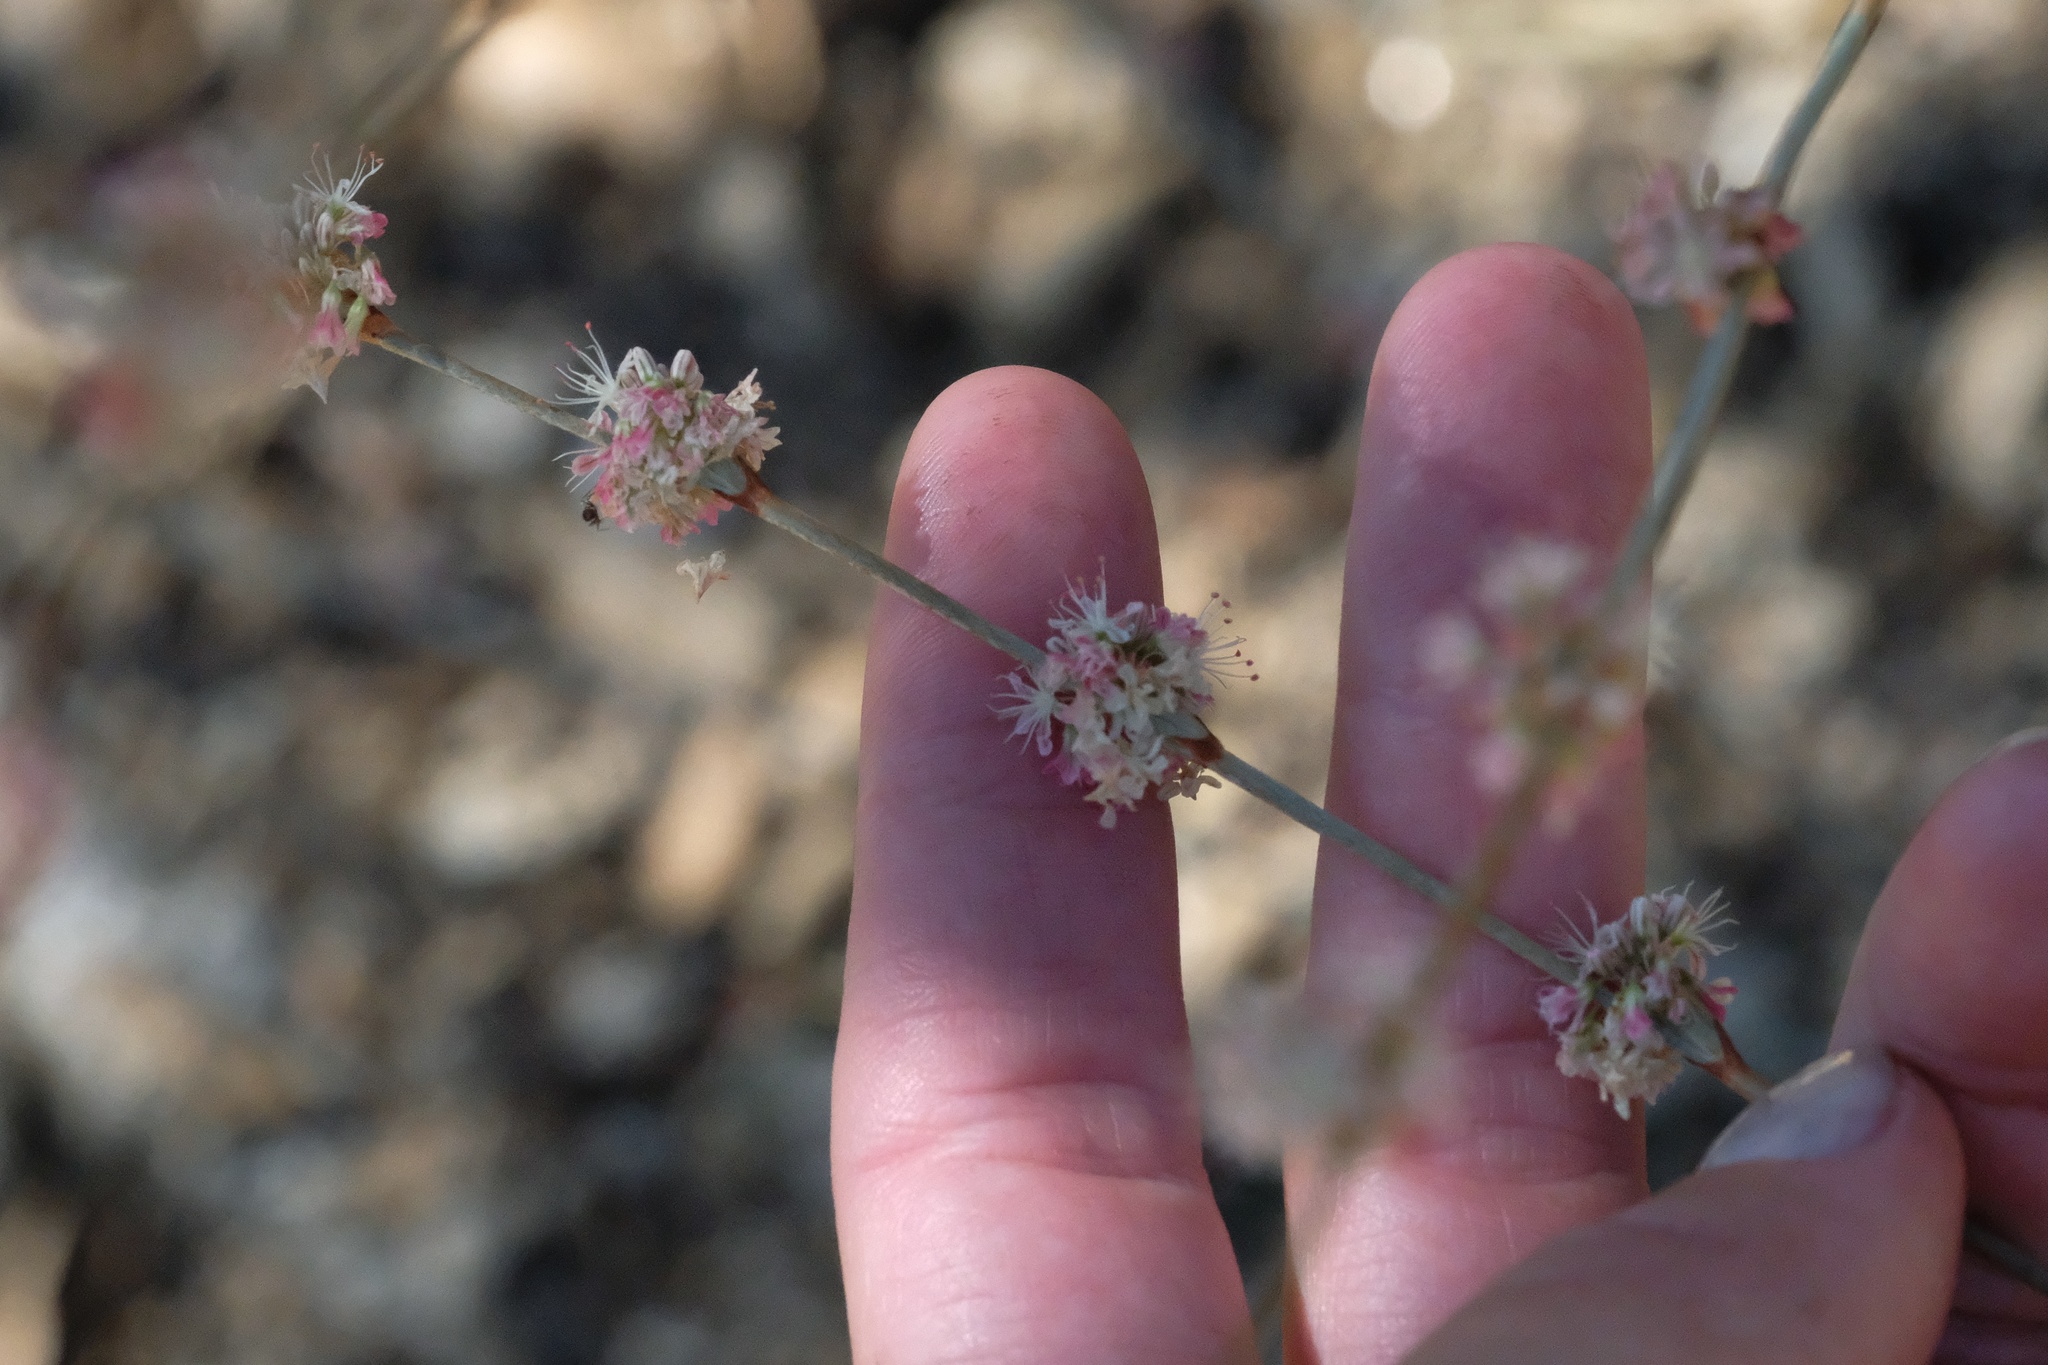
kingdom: Plantae
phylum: Tracheophyta
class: Magnoliopsida
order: Caryophyllales
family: Polygonaceae
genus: Eriogonum
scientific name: Eriogonum elongatum
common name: Long-stem wild buckwheat
